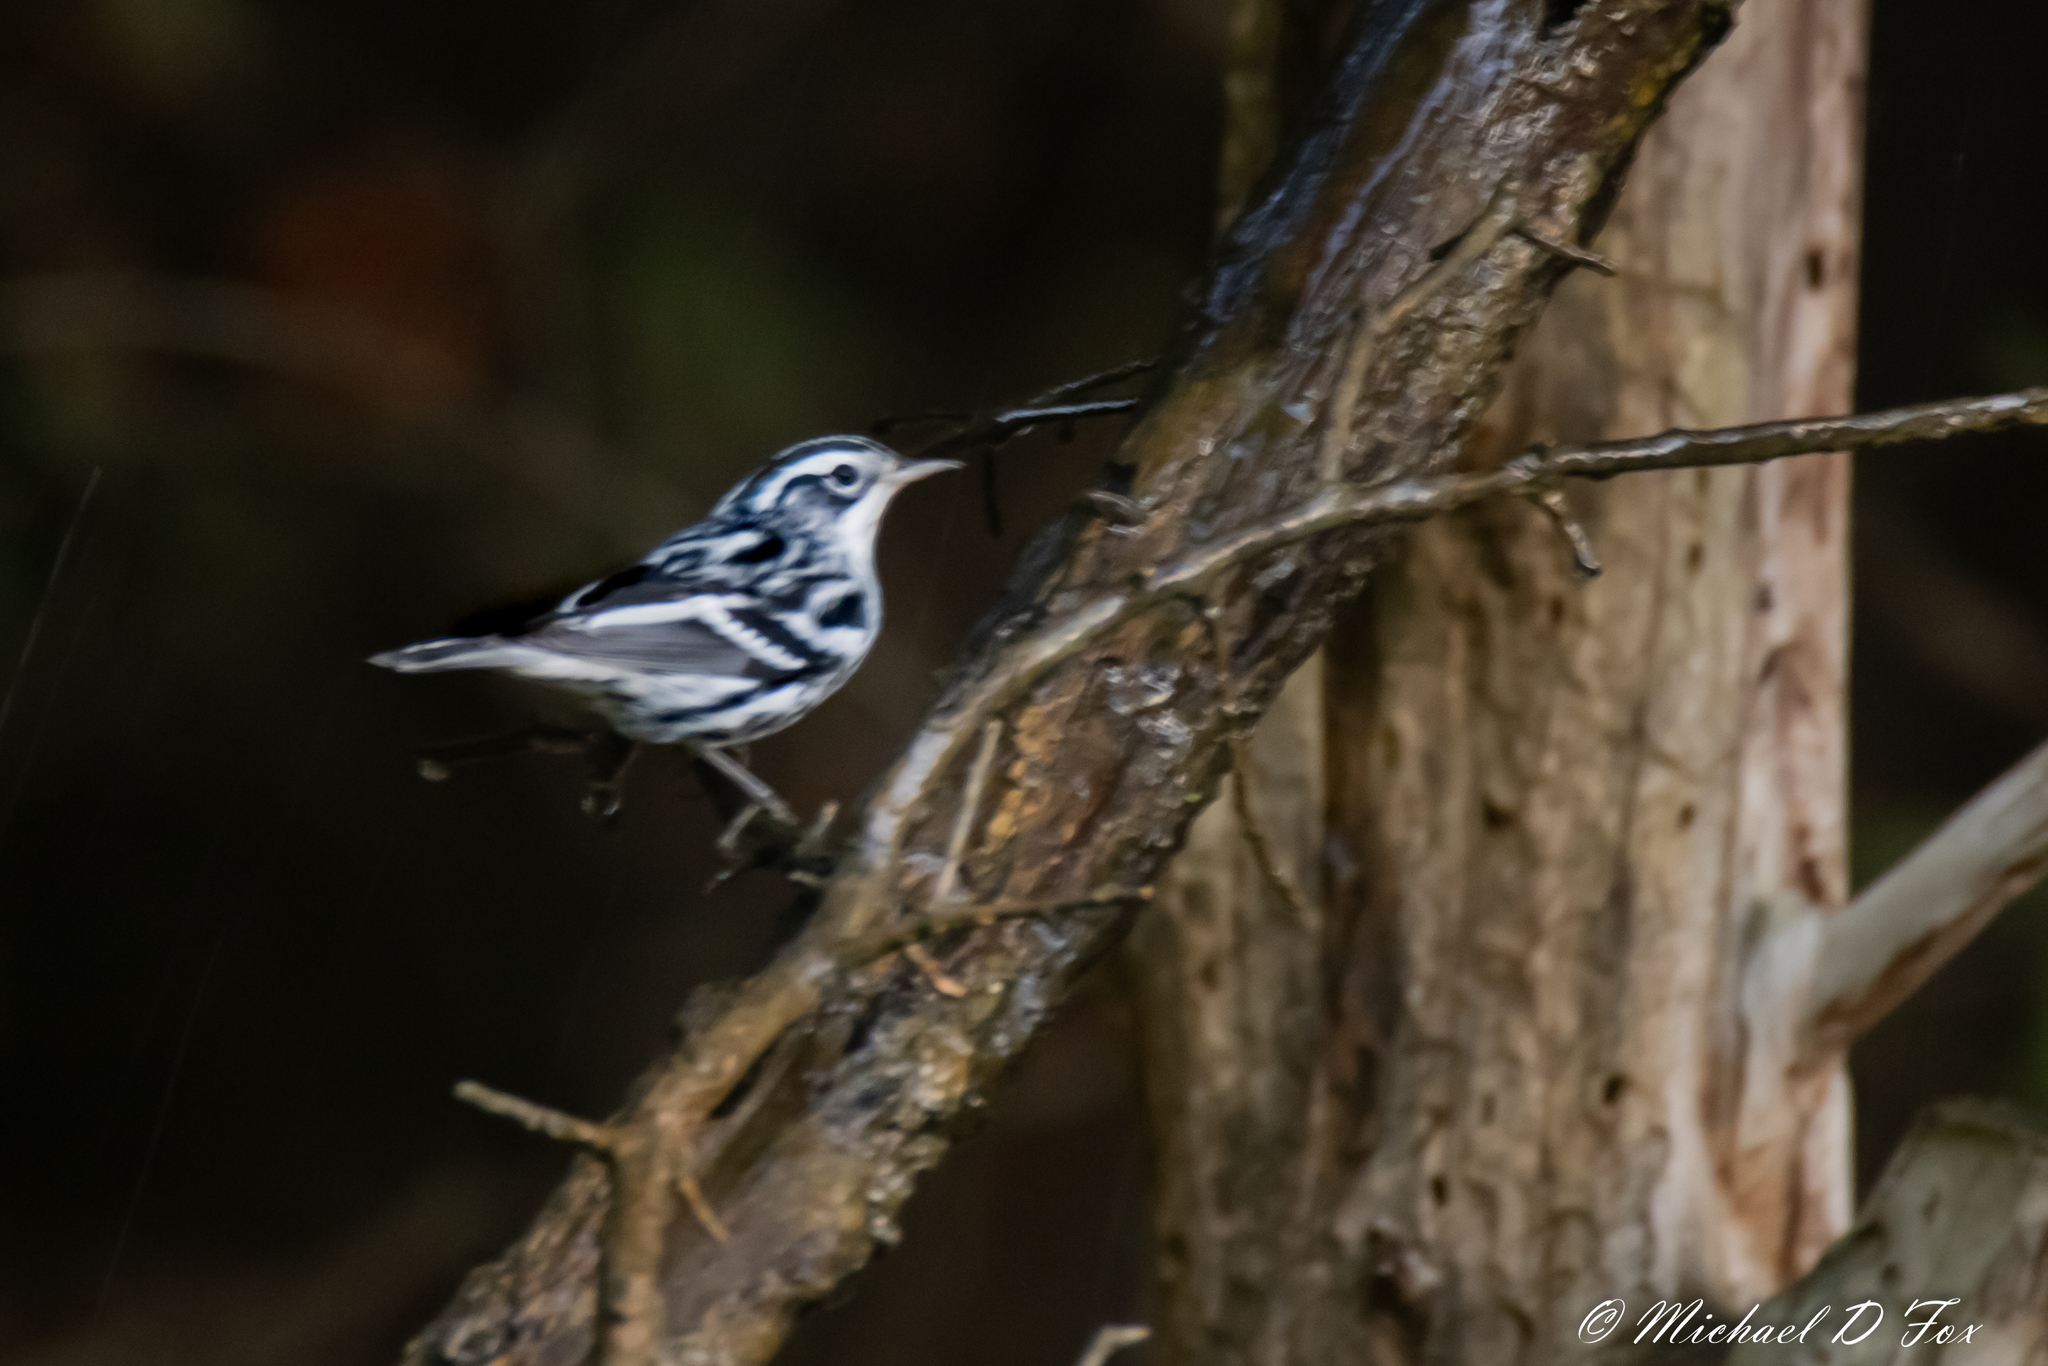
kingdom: Animalia
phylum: Chordata
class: Aves
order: Passeriformes
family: Parulidae
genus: Mniotilta
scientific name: Mniotilta varia
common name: Black-and-white warbler
